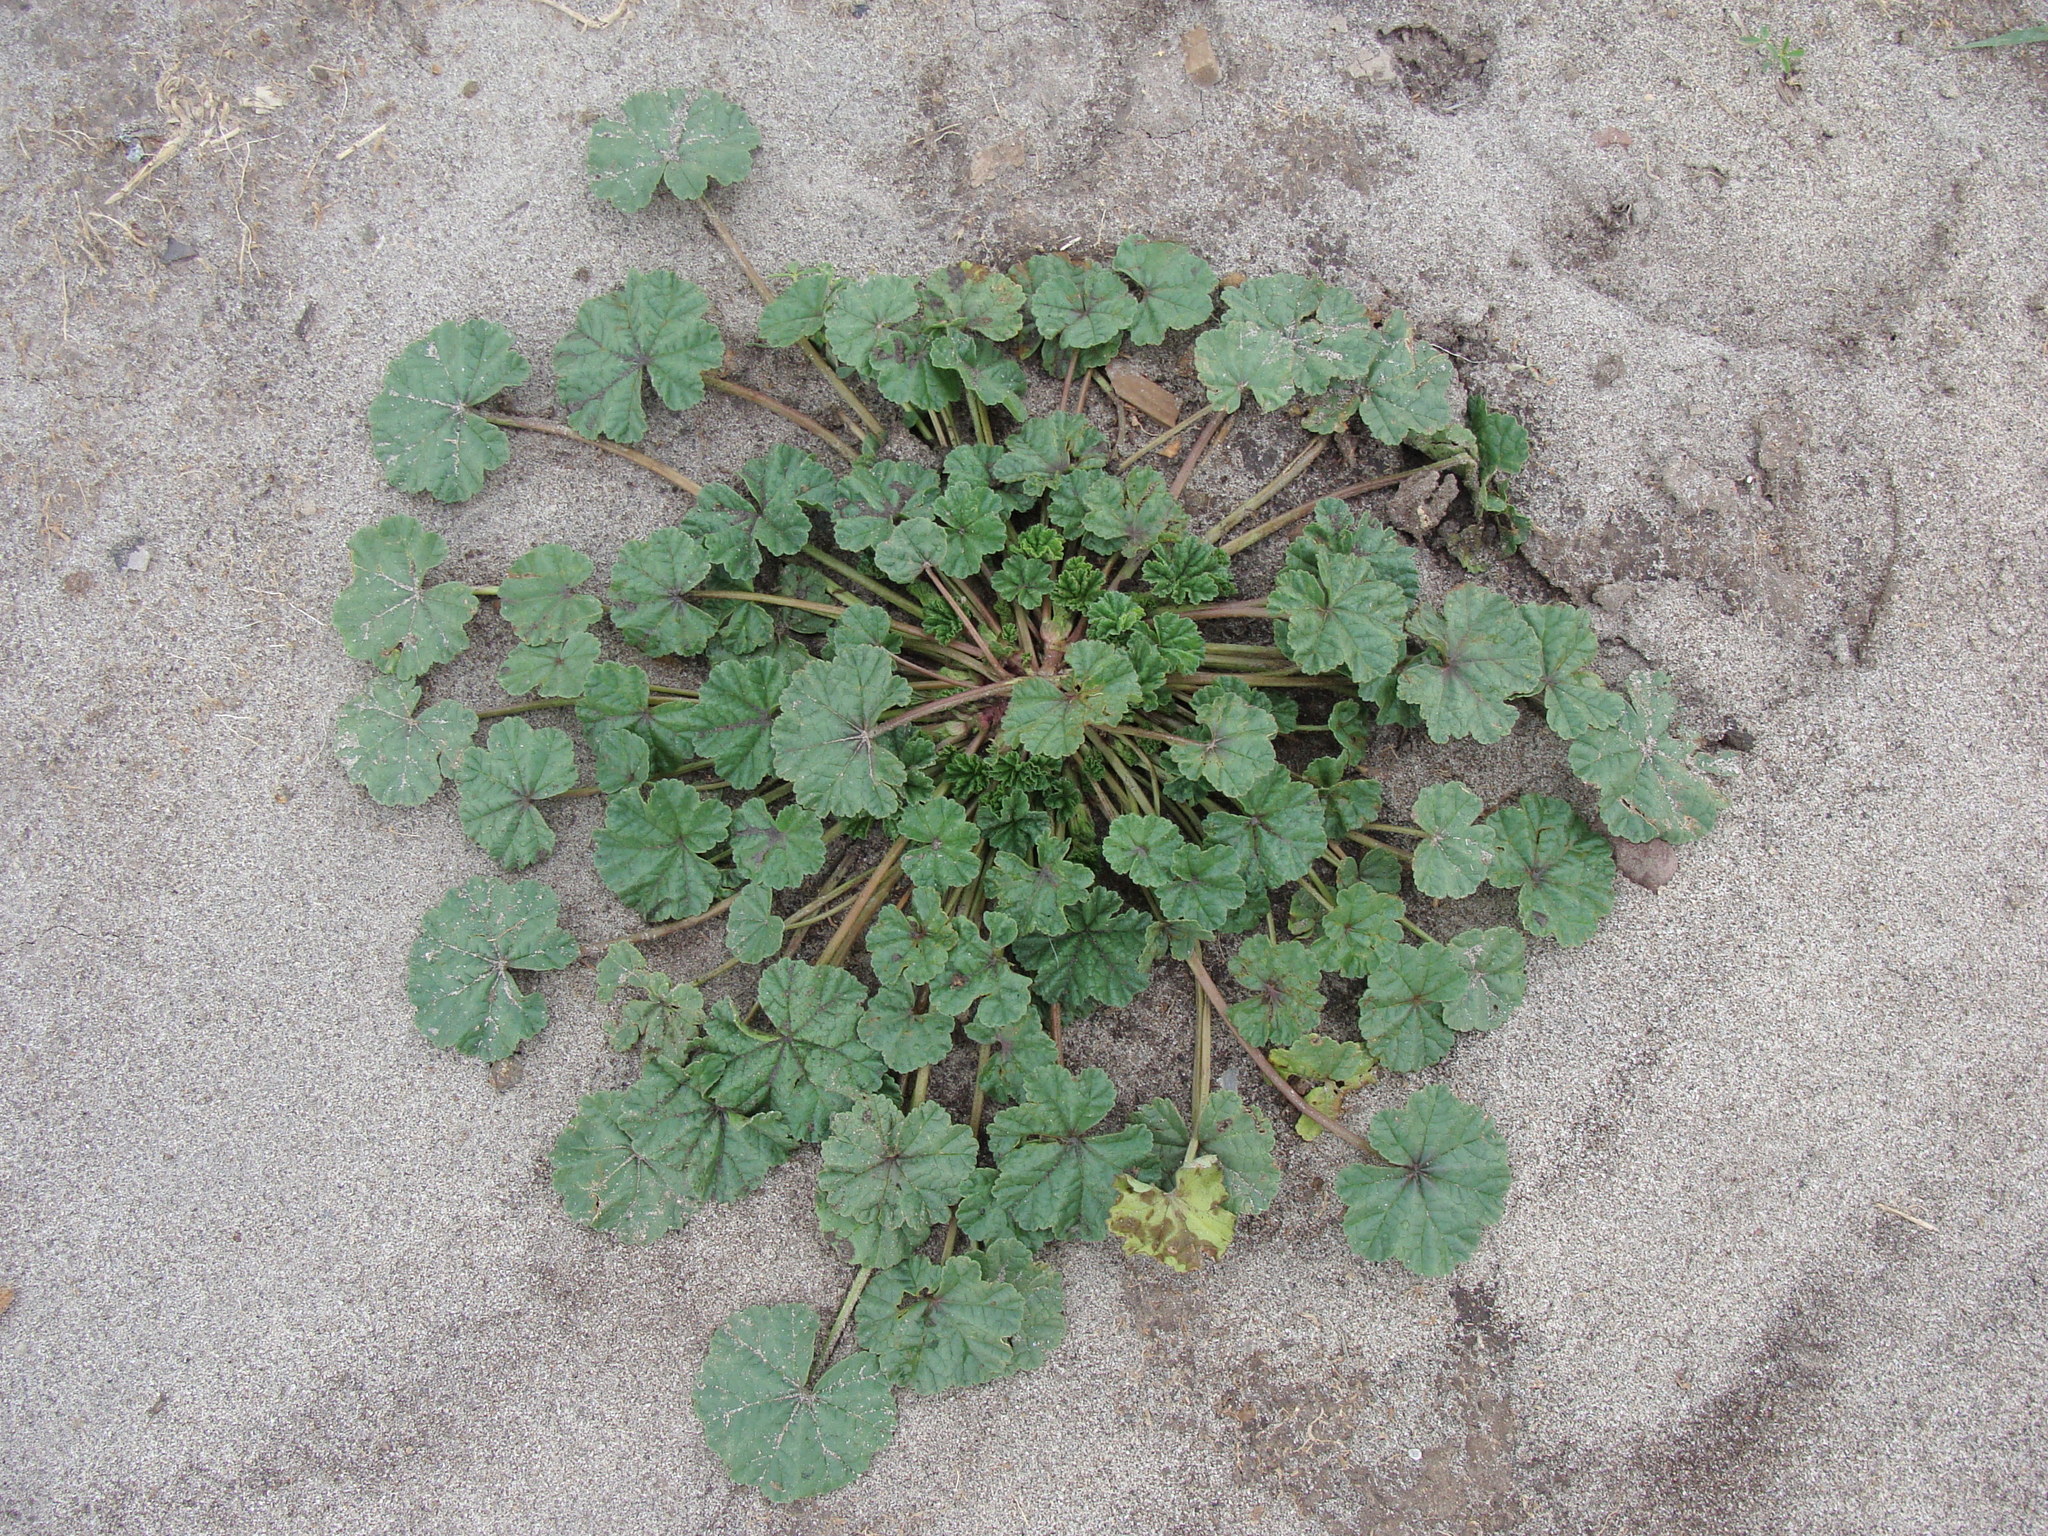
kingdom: Plantae
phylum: Tracheophyta
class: Magnoliopsida
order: Malvales
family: Malvaceae
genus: Malva
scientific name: Malva parviflora
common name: Least mallow
